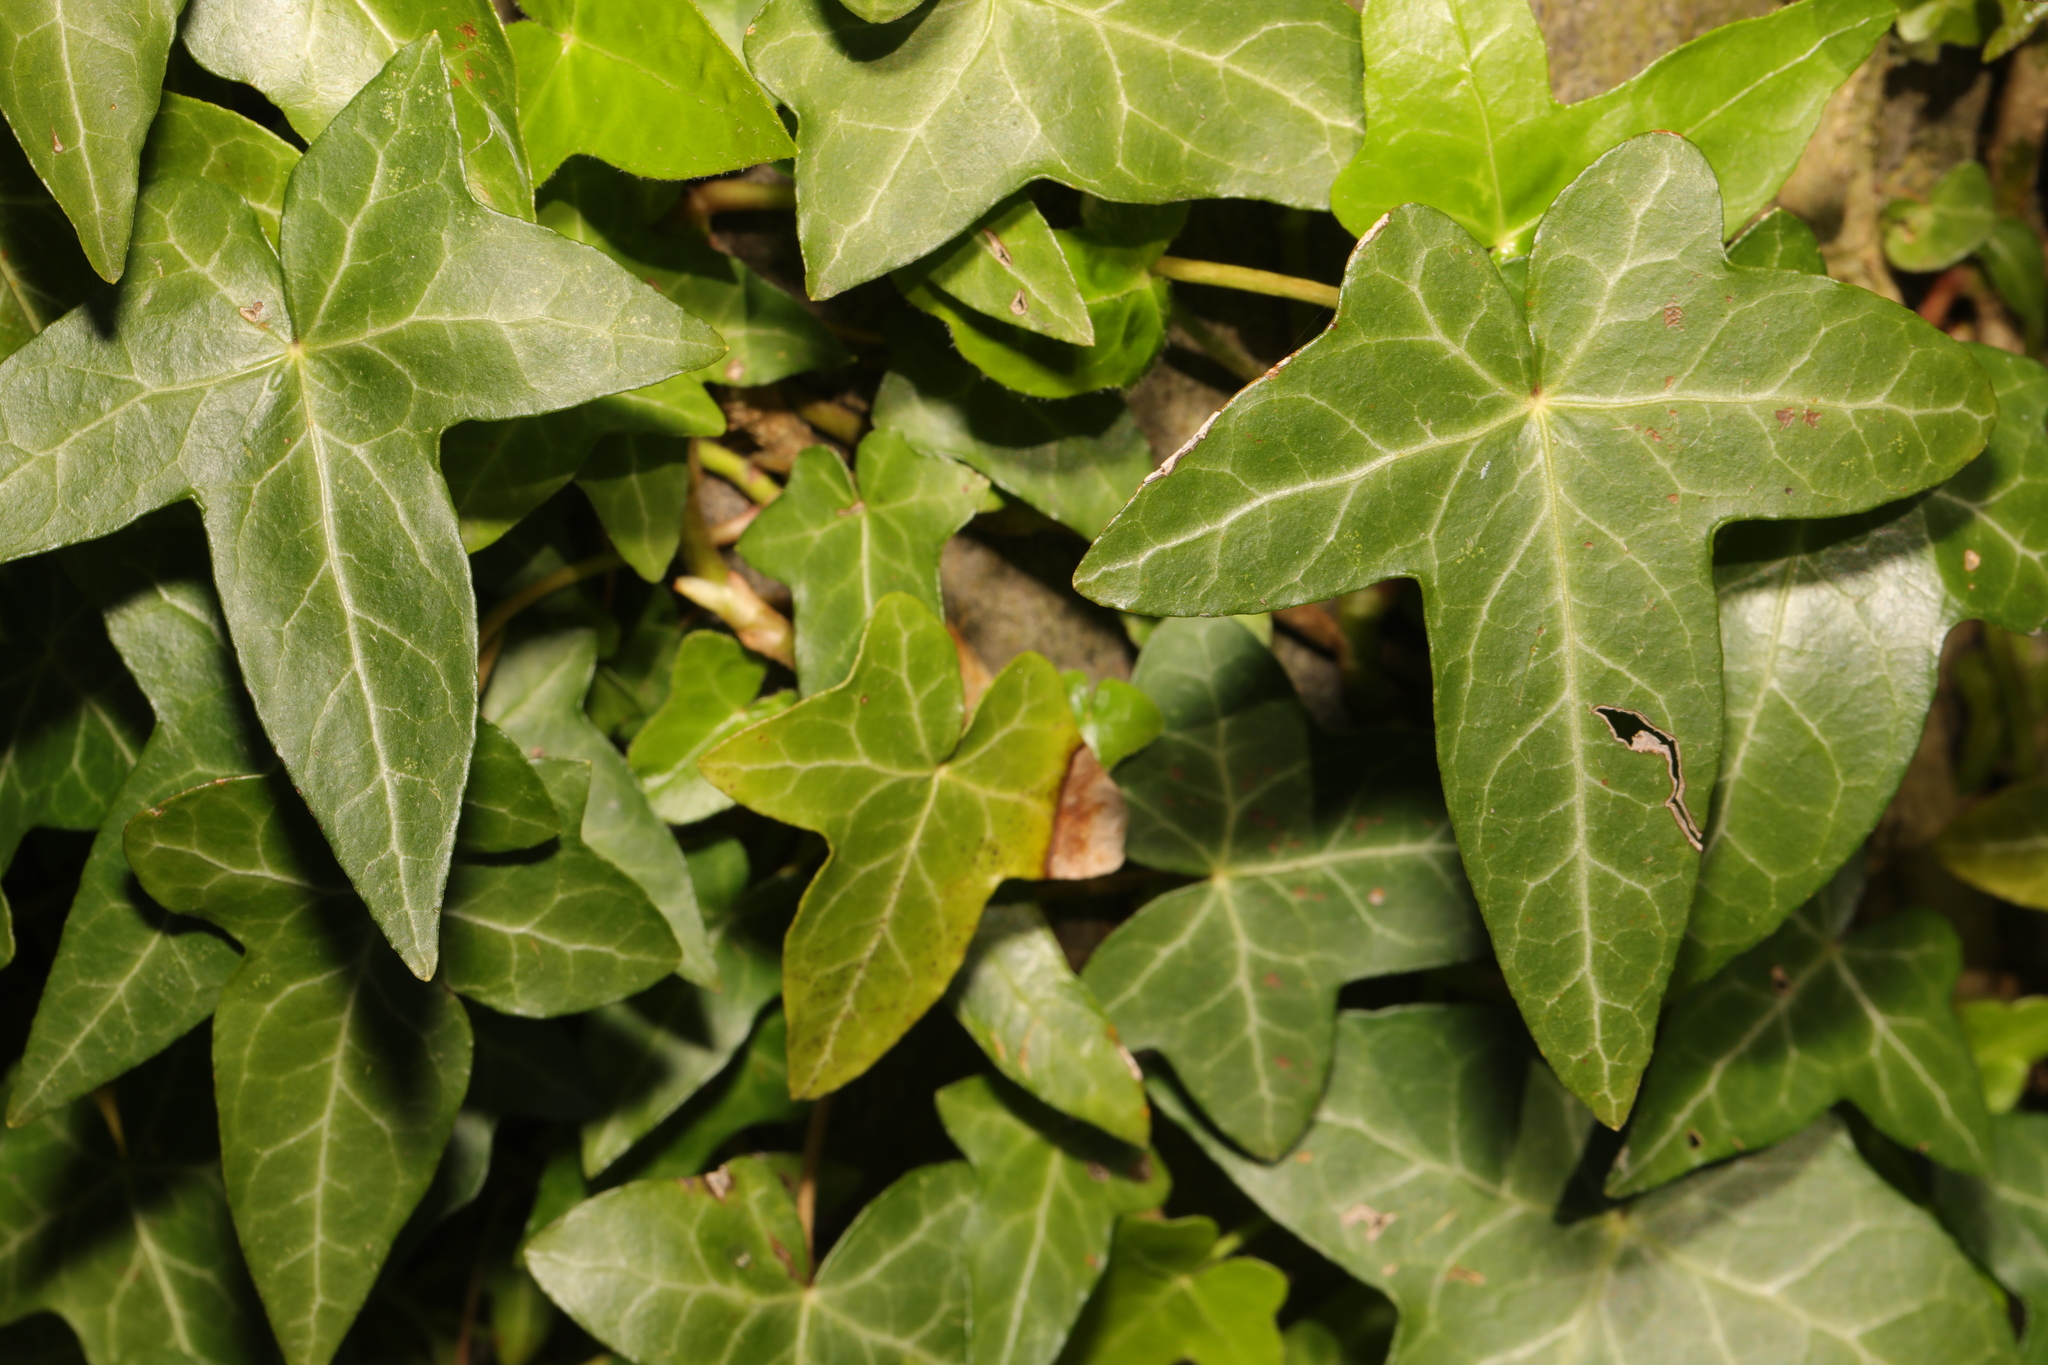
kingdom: Plantae
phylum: Tracheophyta
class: Magnoliopsida
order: Apiales
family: Araliaceae
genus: Hedera
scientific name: Hedera helix
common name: Ivy
